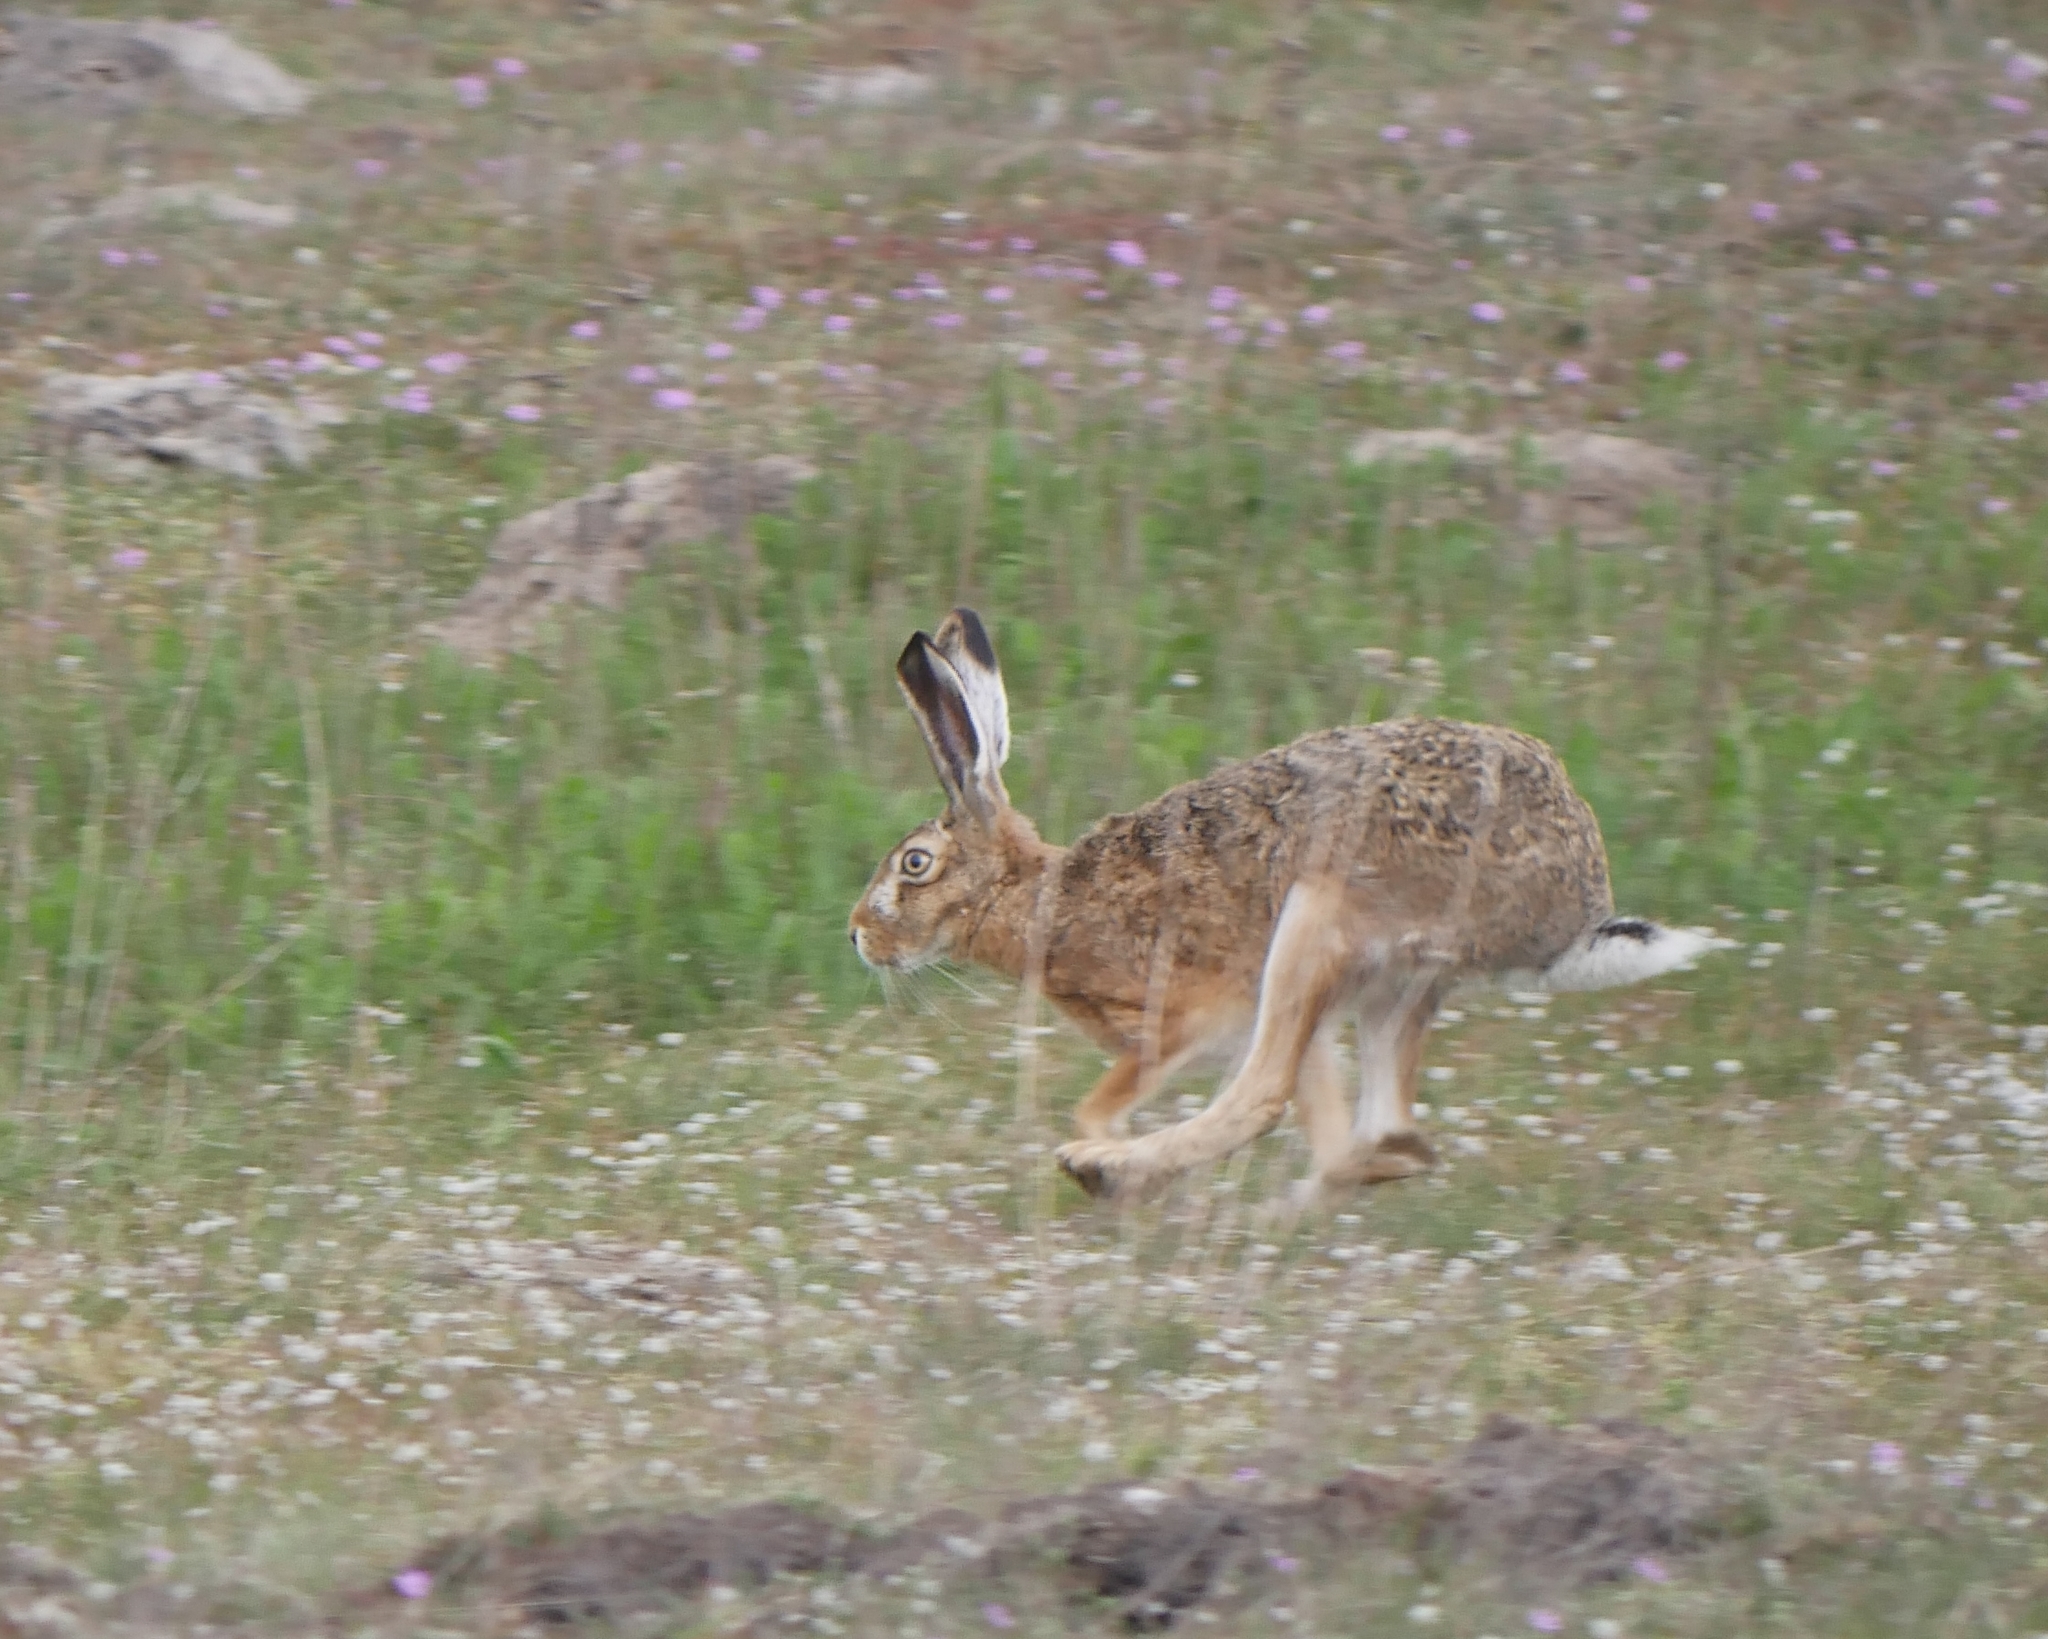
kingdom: Animalia
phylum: Chordata
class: Mammalia
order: Lagomorpha
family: Leporidae
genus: Lepus
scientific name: Lepus europaeus
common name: European hare
